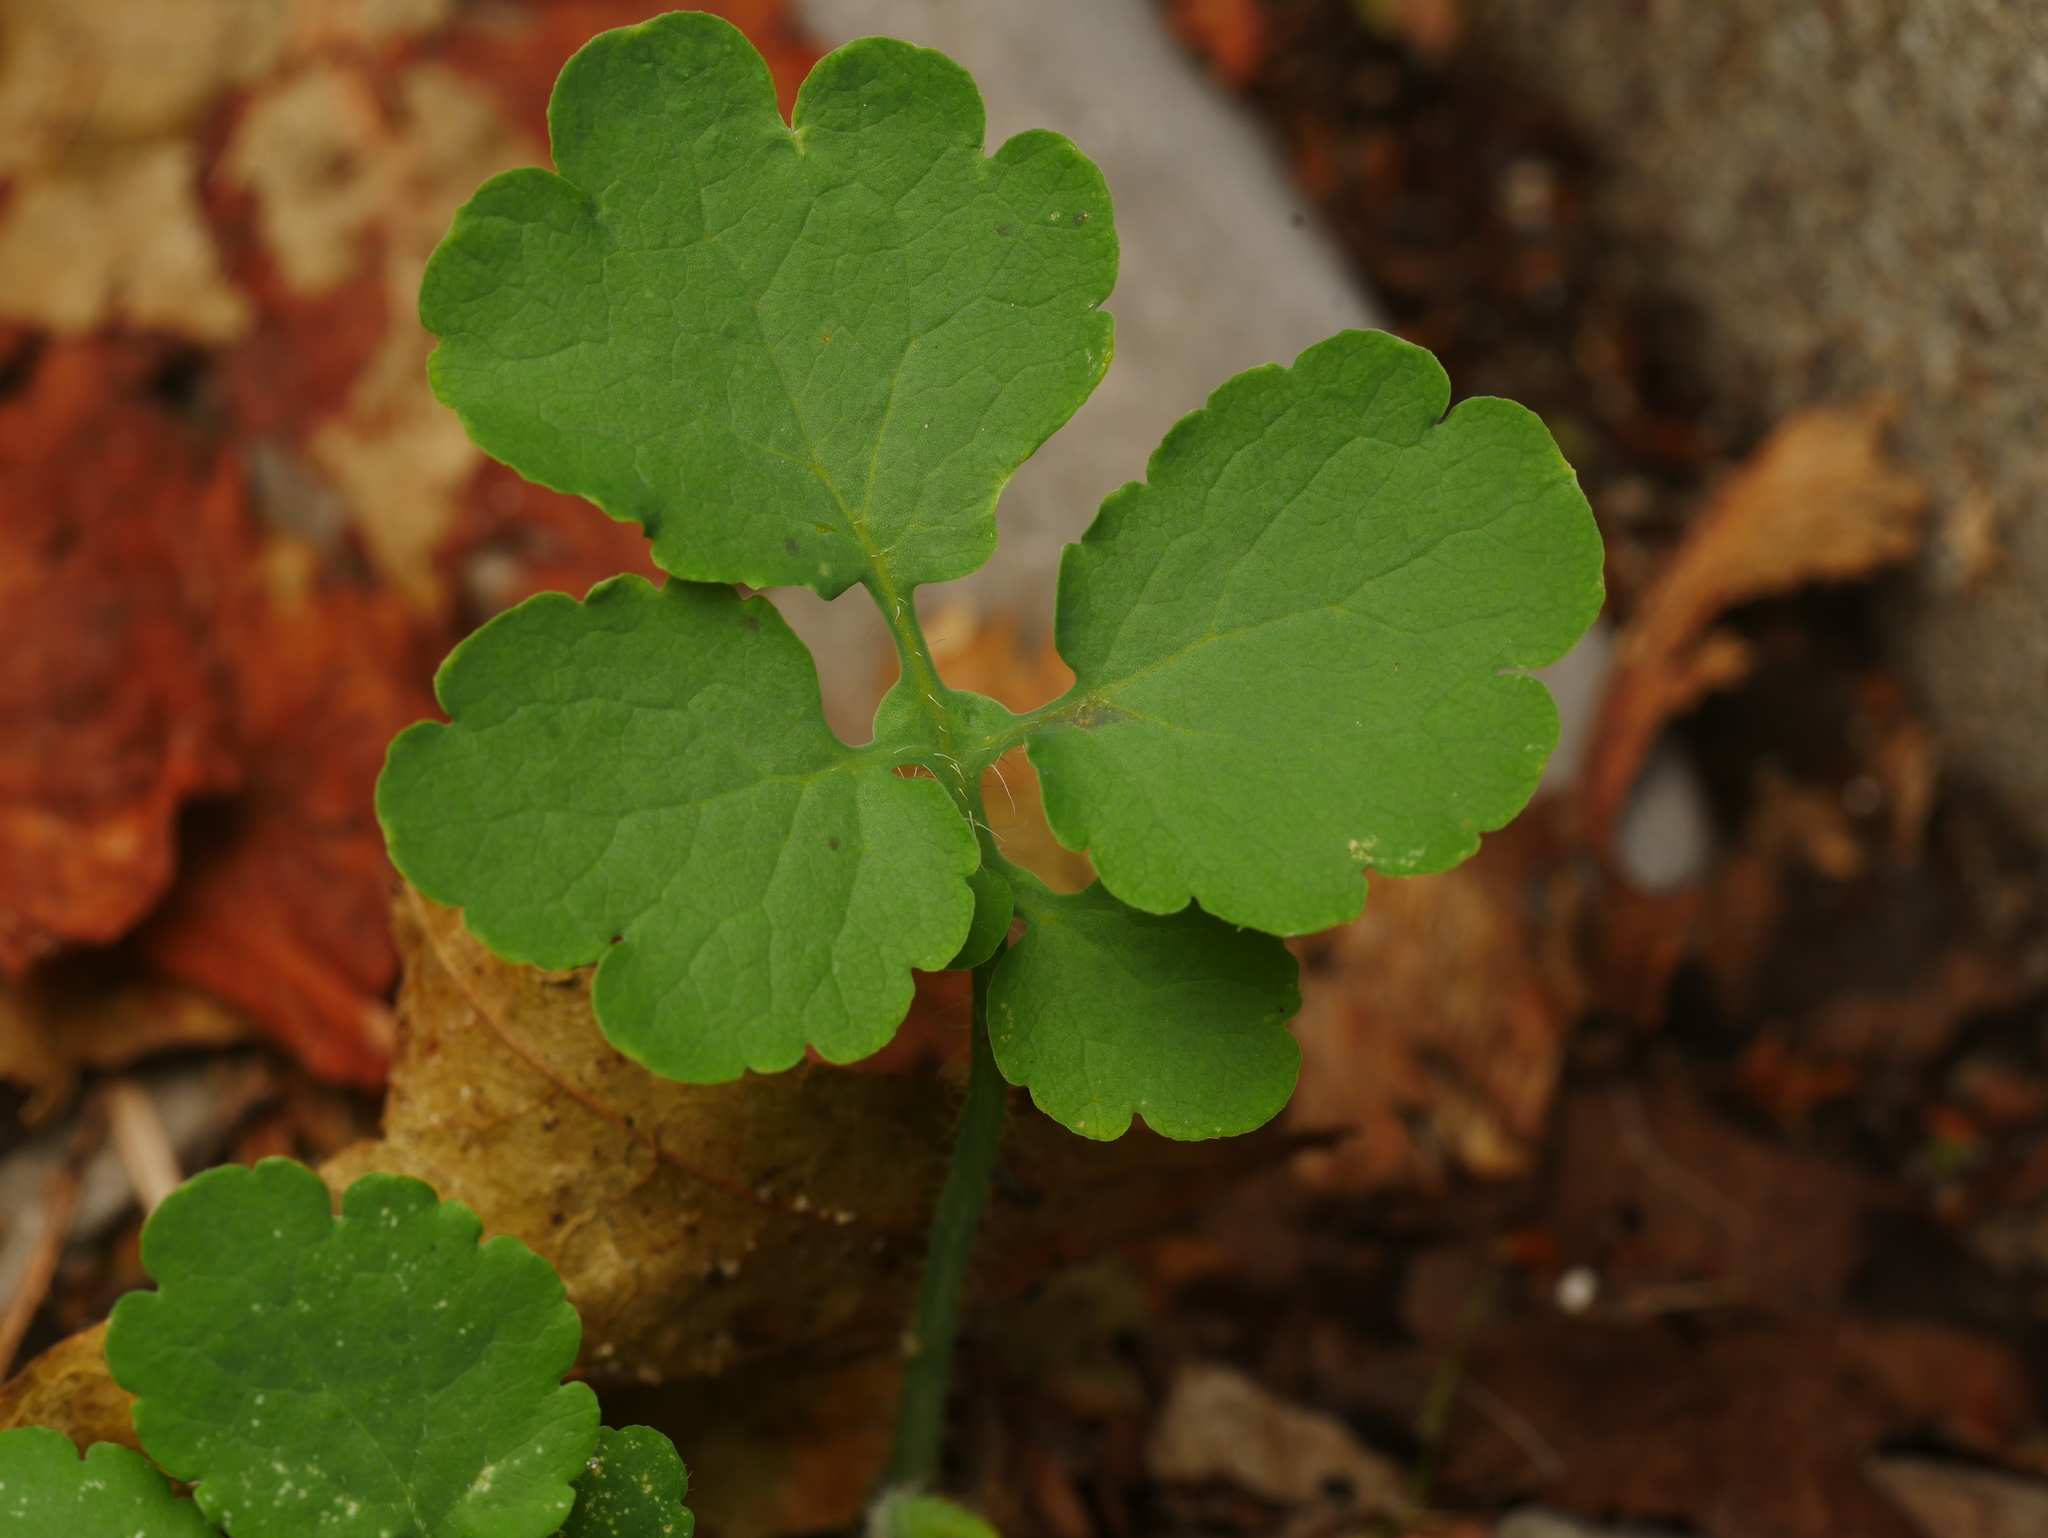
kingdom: Plantae
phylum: Tracheophyta
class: Magnoliopsida
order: Ranunculales
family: Papaveraceae
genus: Chelidonium
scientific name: Chelidonium majus
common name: Greater celandine
